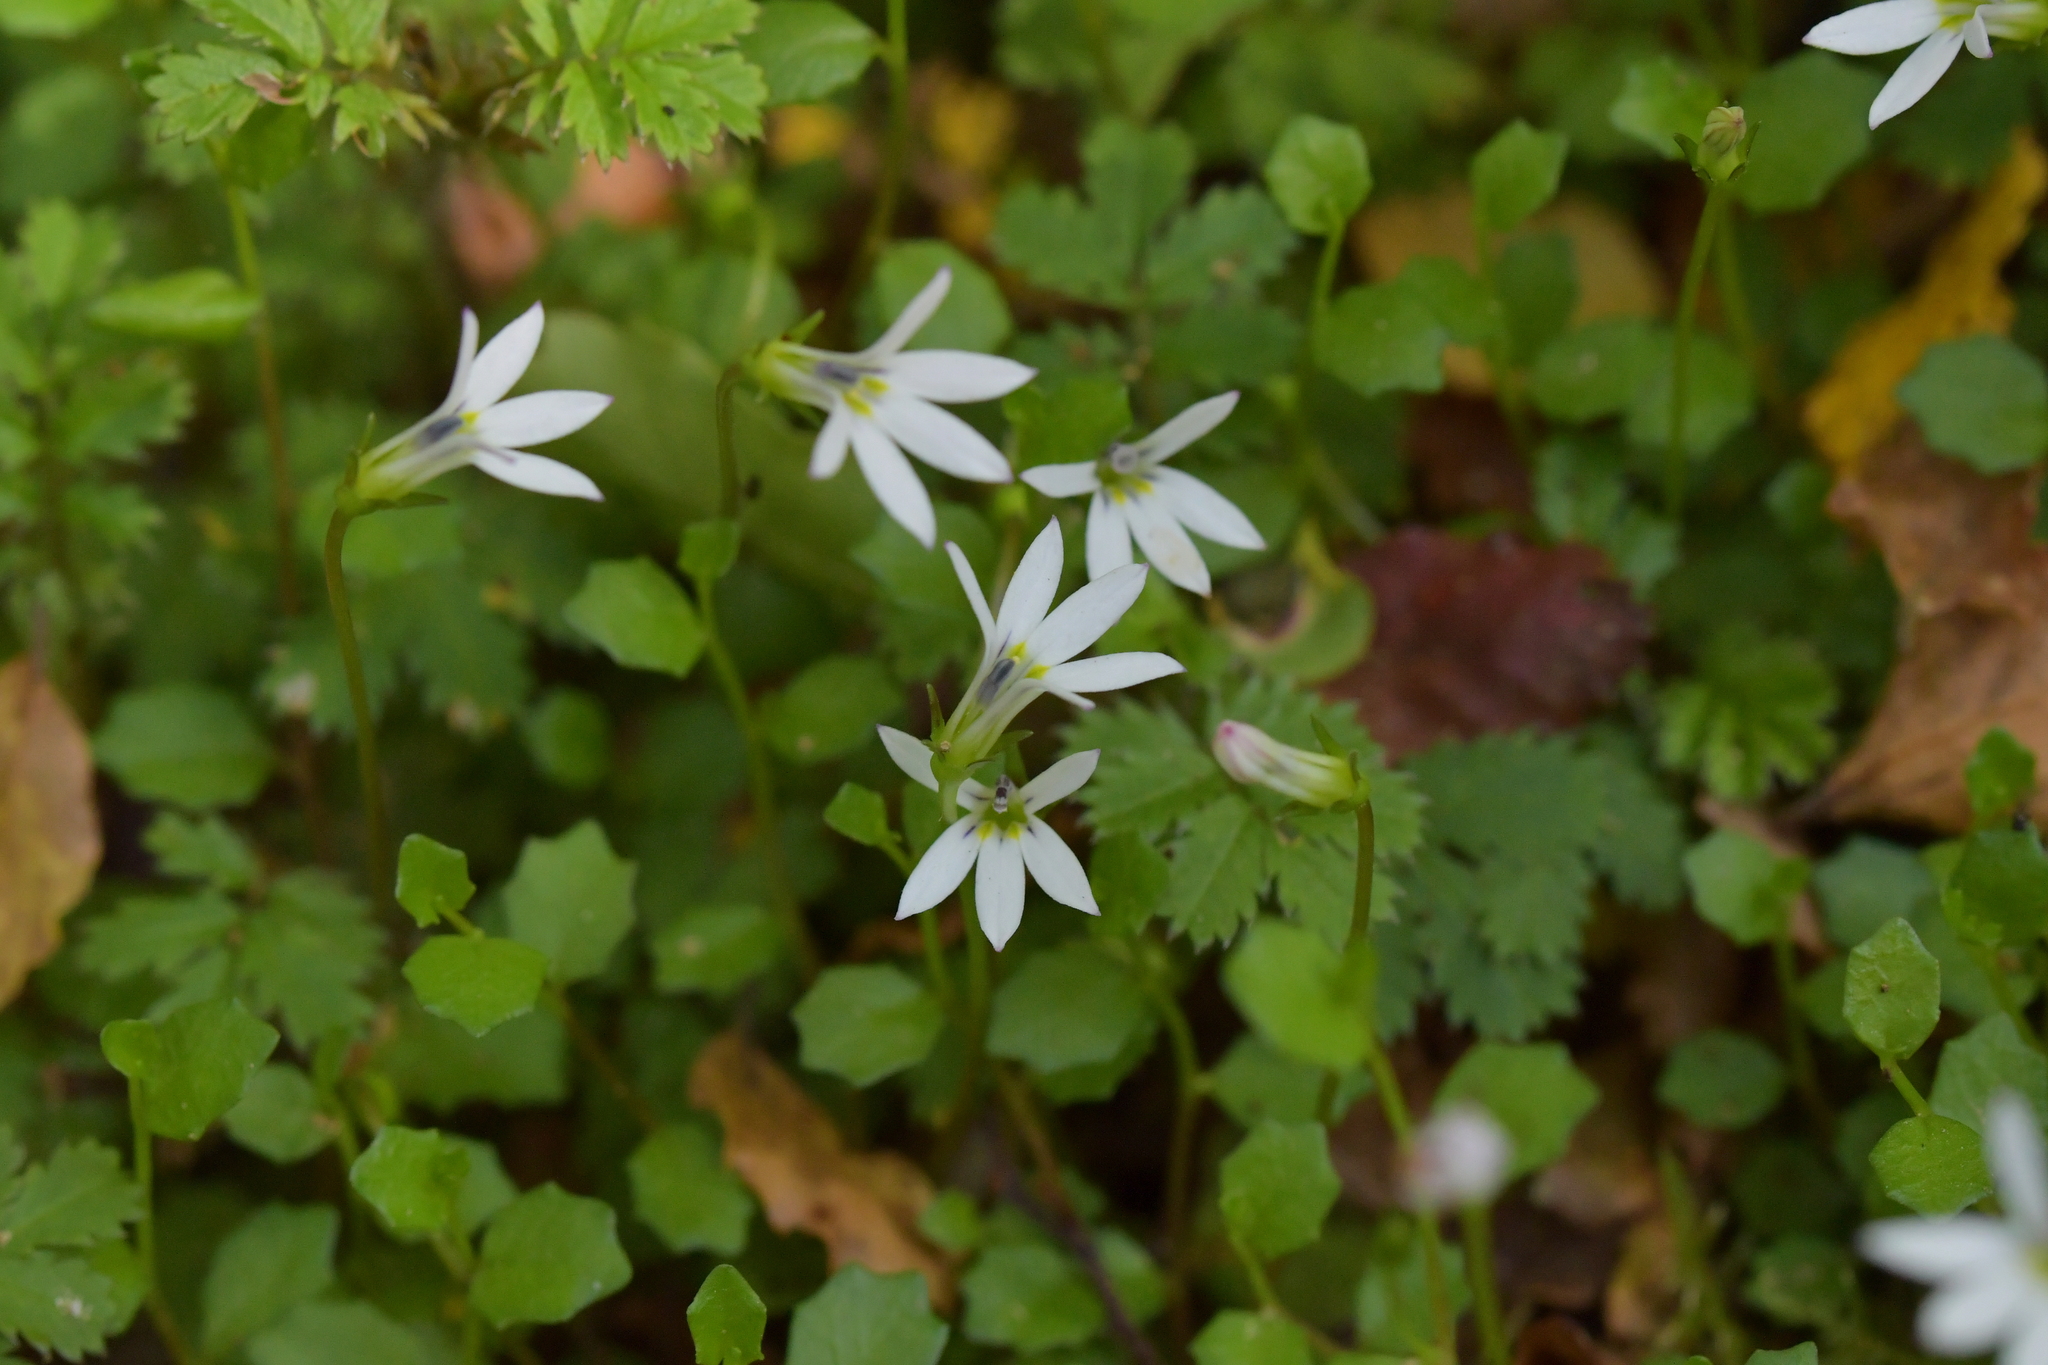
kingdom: Plantae
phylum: Tracheophyta
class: Magnoliopsida
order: Asterales
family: Campanulaceae
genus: Lobelia
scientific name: Lobelia angulata
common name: Lawn lobelia
